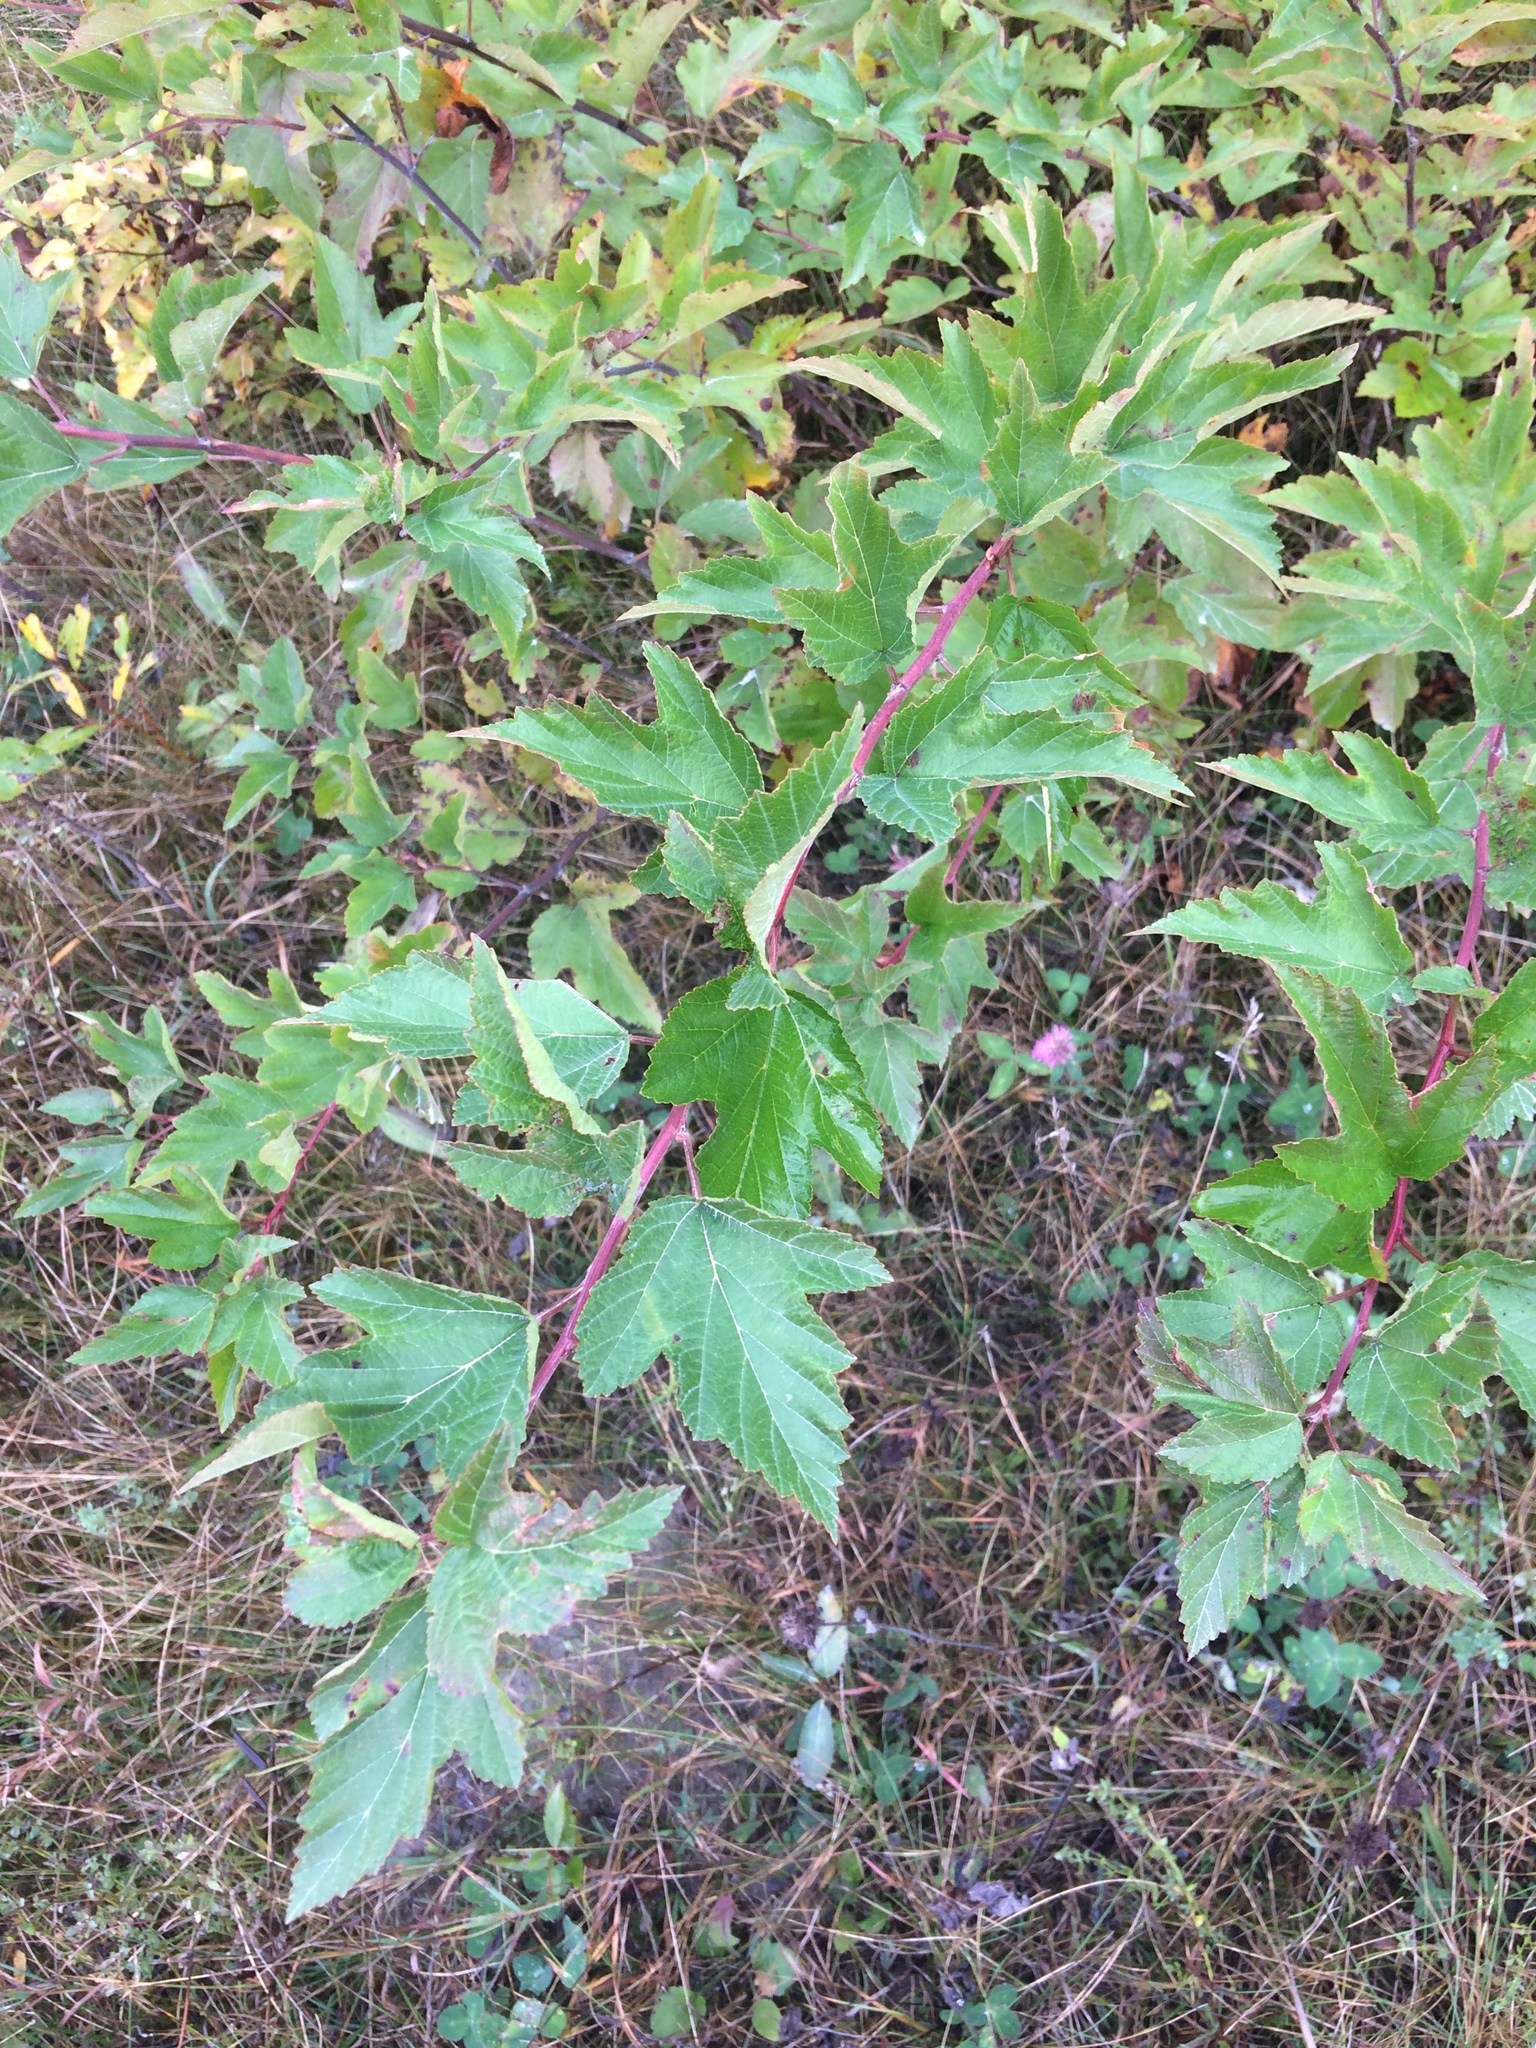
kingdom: Plantae
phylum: Tracheophyta
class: Magnoliopsida
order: Rosales
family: Rosaceae
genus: Physocarpus
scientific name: Physocarpus opulifolius
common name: Ninebark
